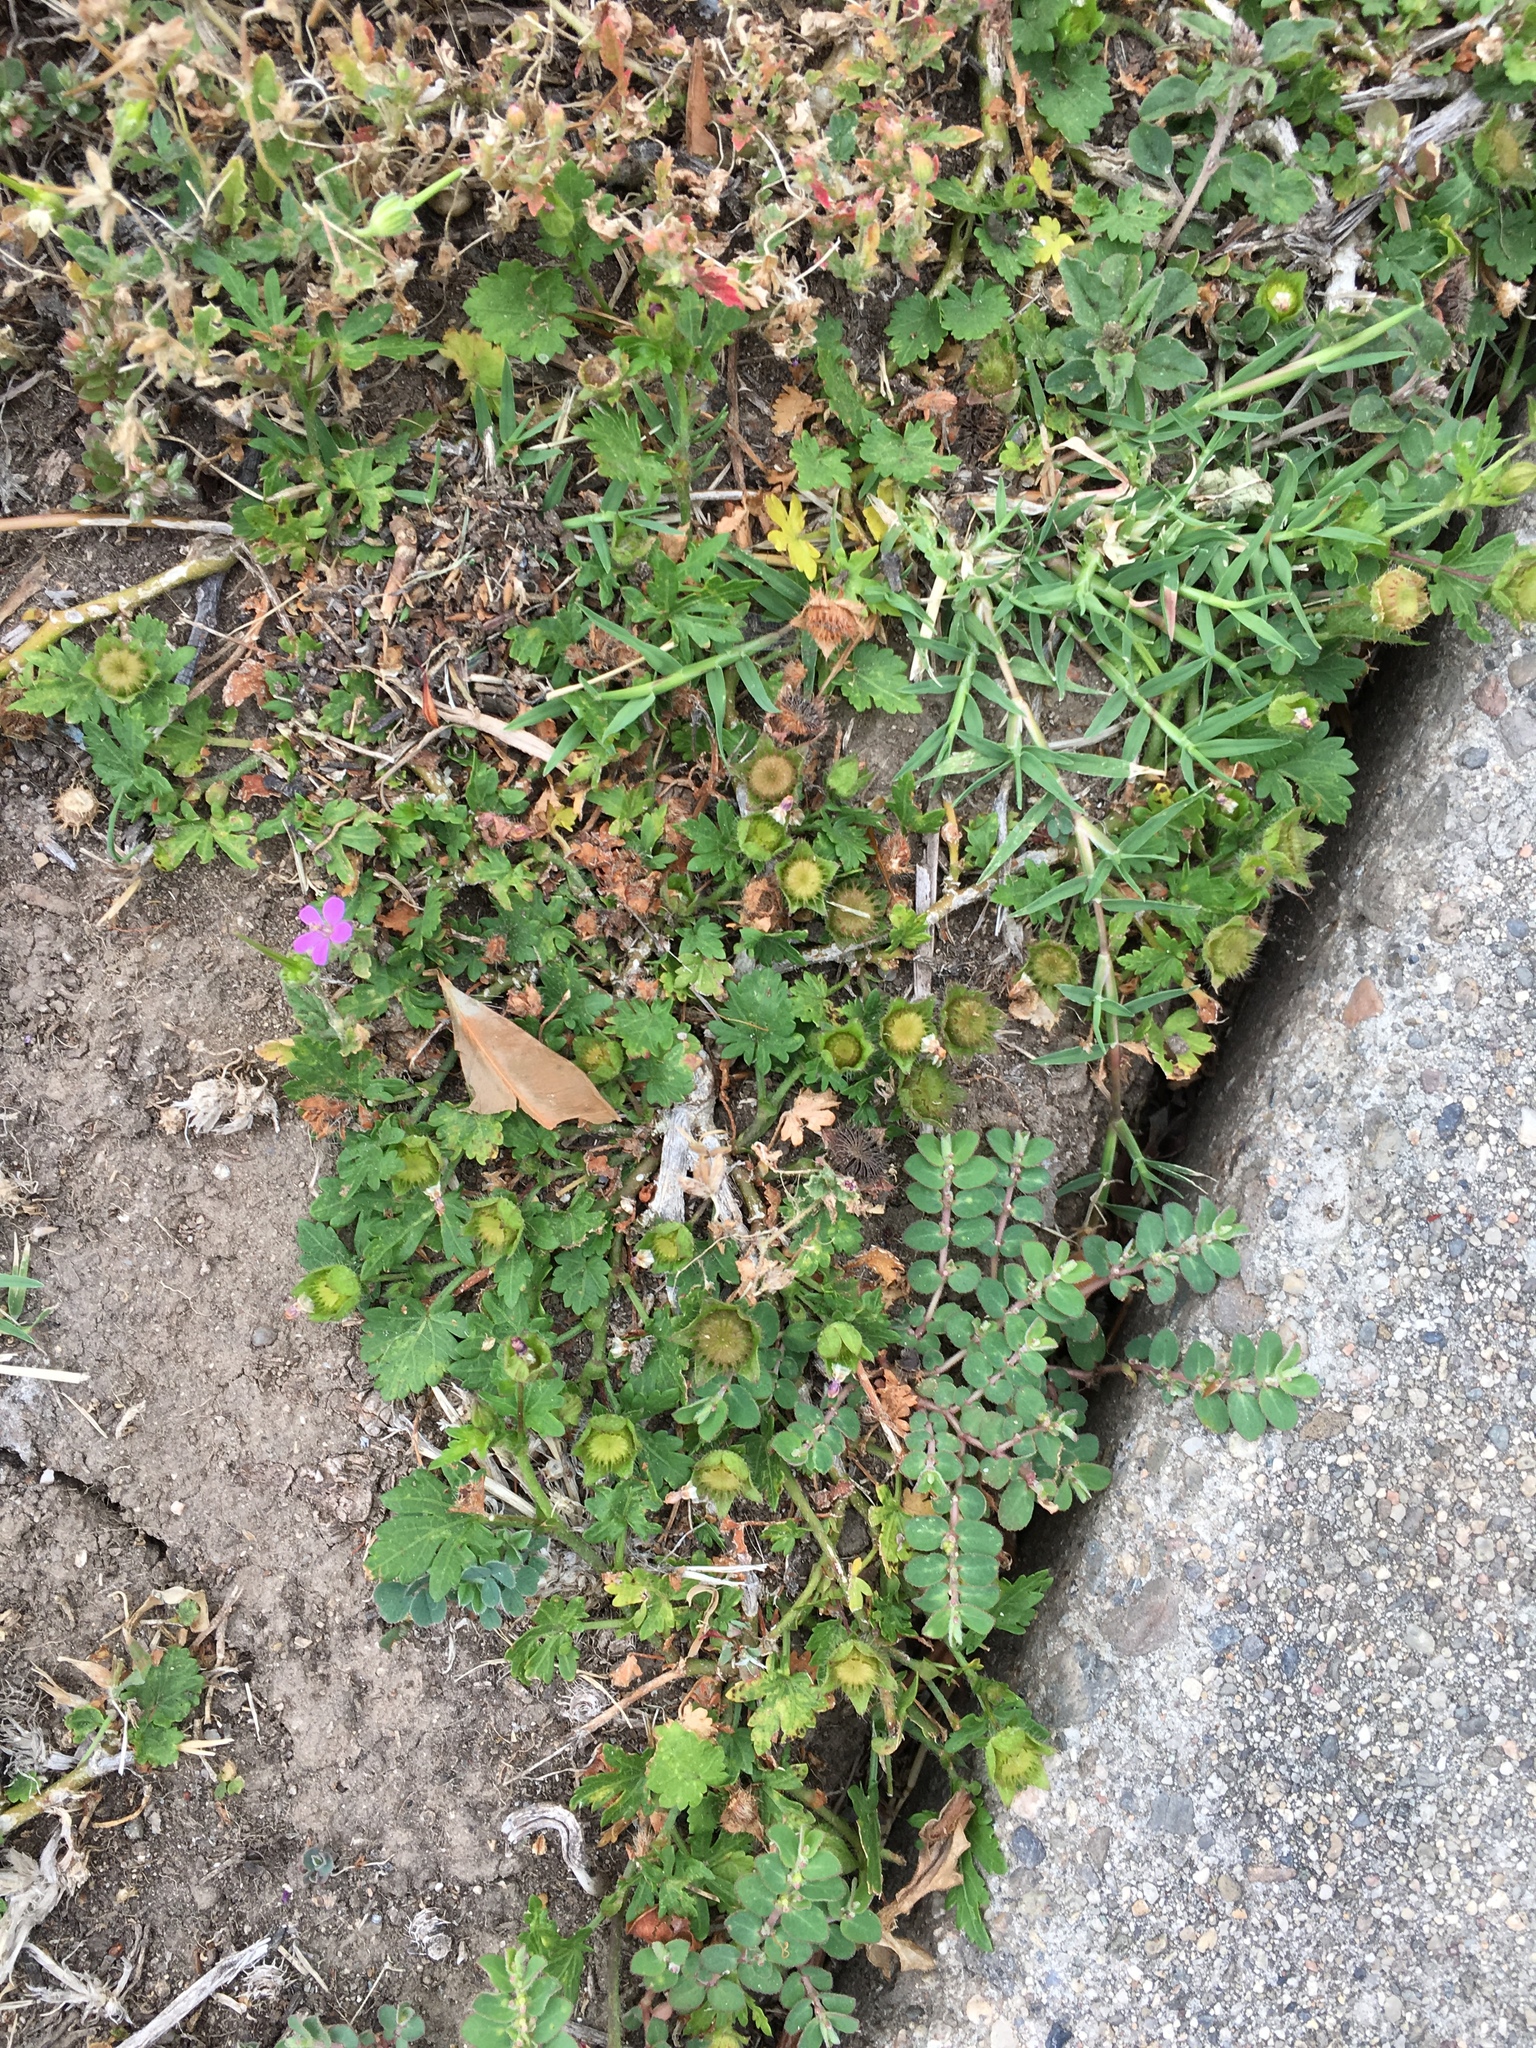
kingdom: Plantae
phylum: Tracheophyta
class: Magnoliopsida
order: Malvales
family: Malvaceae
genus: Modiola
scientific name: Modiola caroliniana
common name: Carolina bristlemallow
